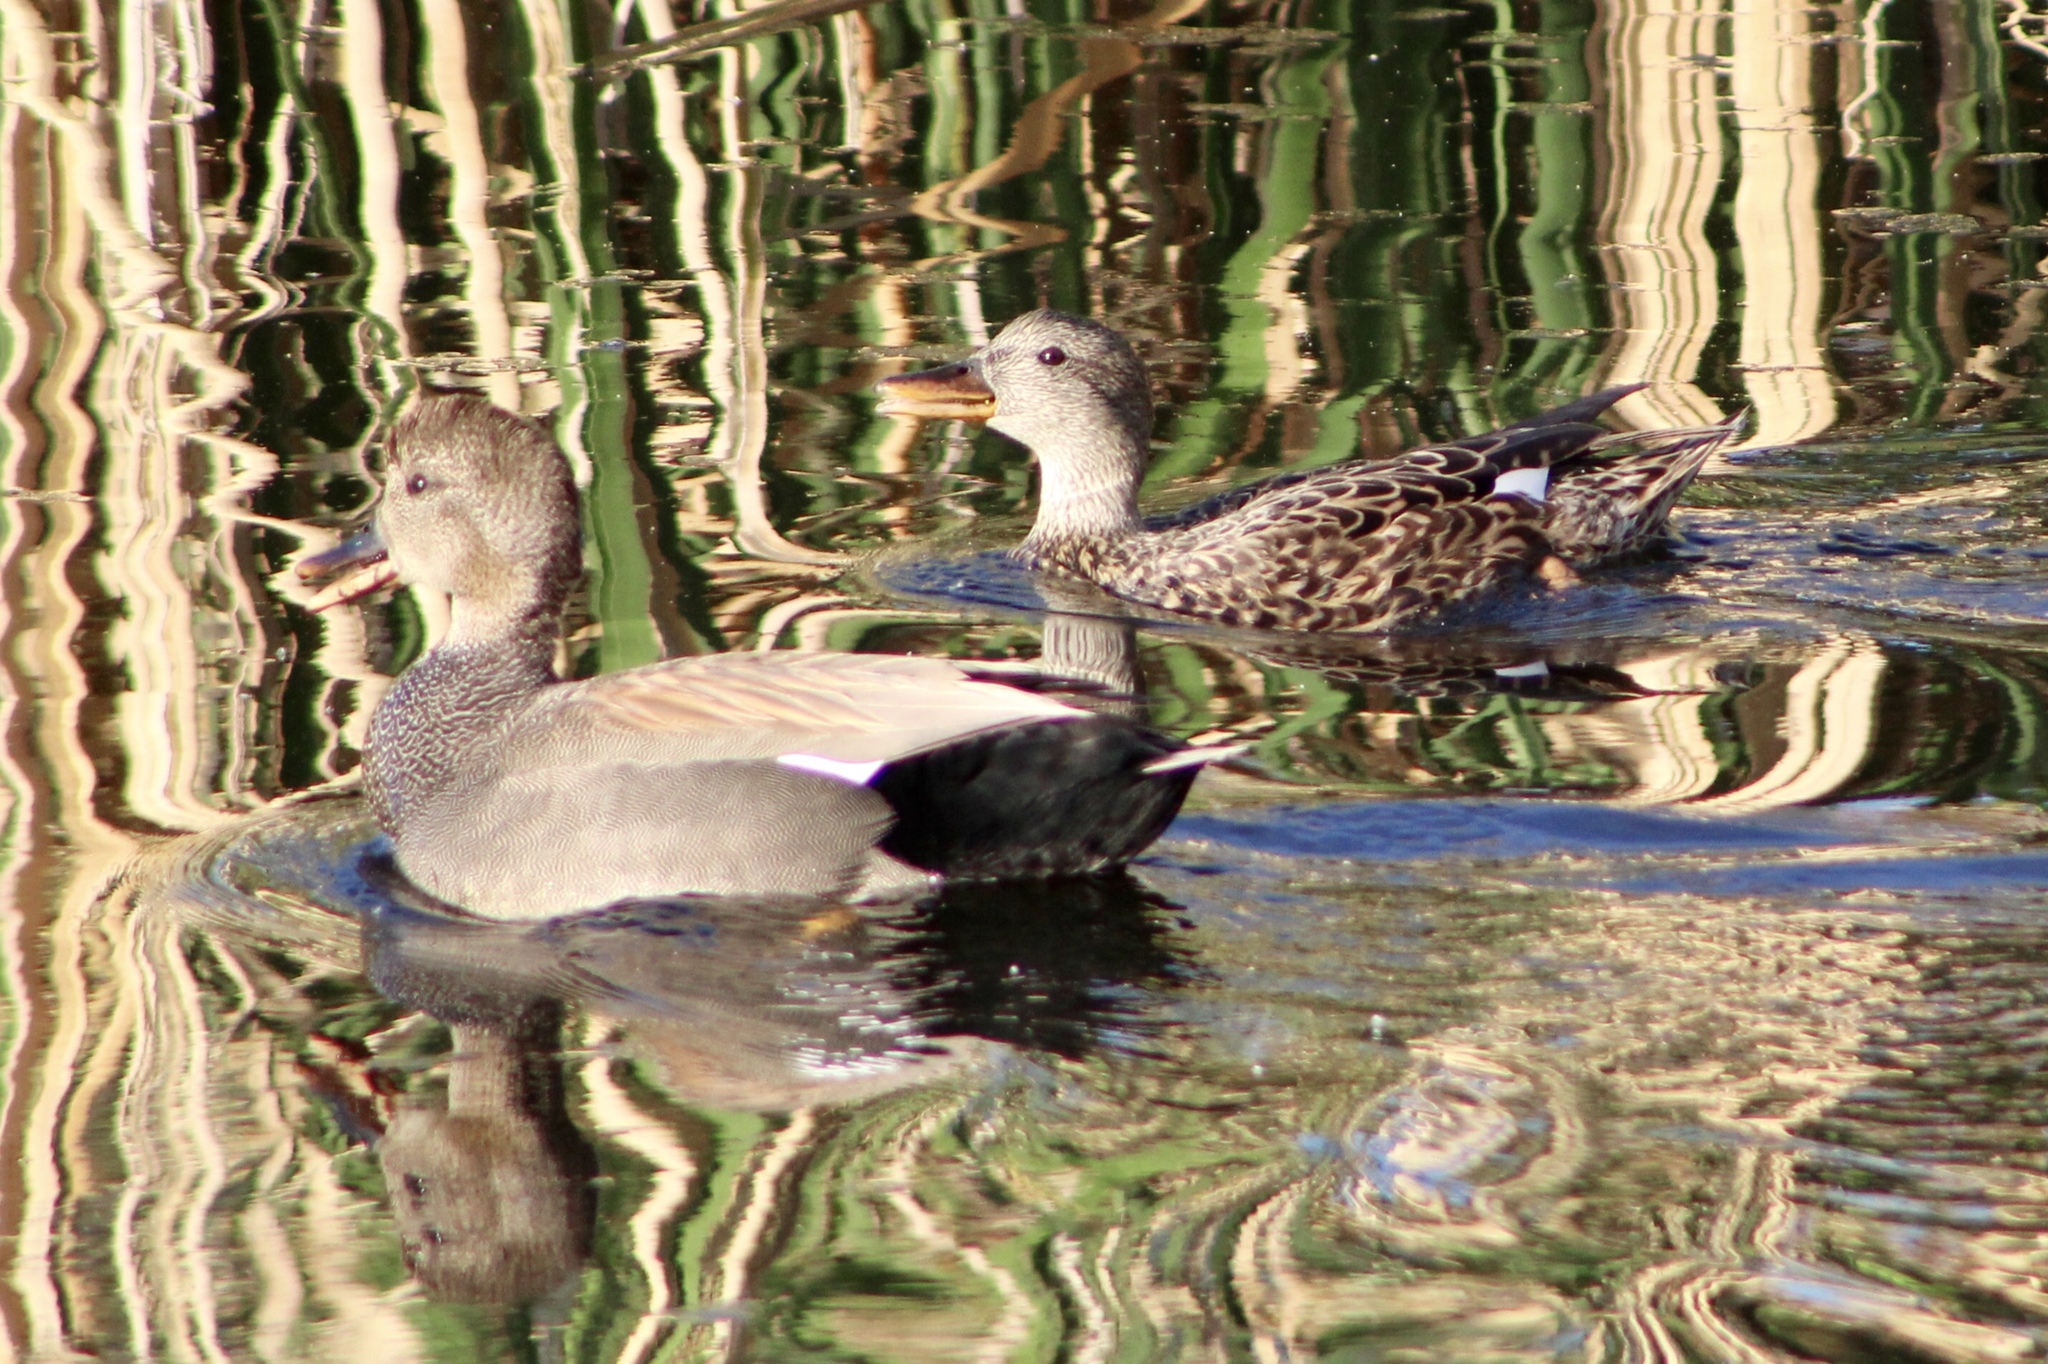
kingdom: Animalia
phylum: Chordata
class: Aves
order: Anseriformes
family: Anatidae
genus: Mareca
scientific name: Mareca strepera
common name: Gadwall
